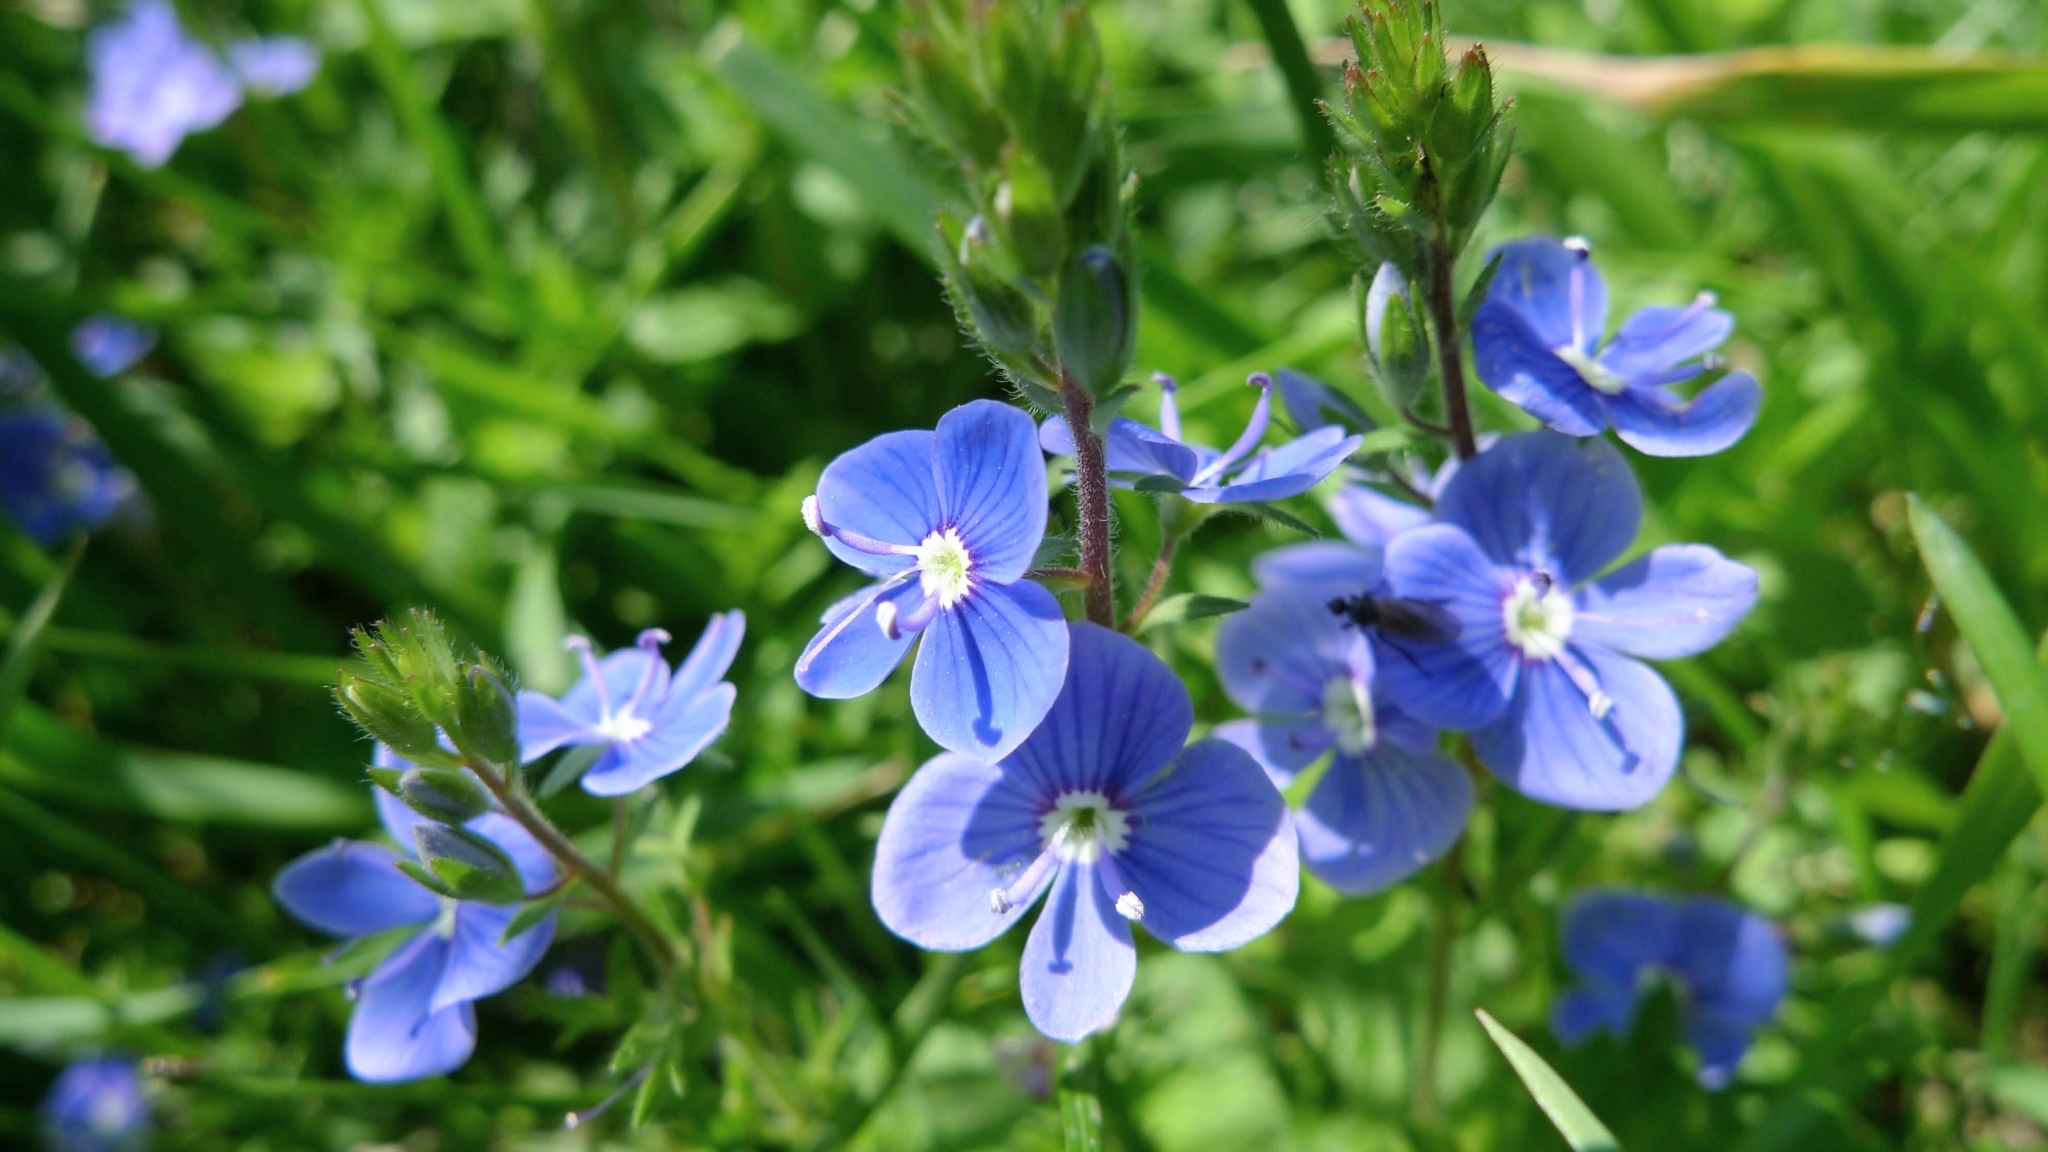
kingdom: Plantae
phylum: Tracheophyta
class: Magnoliopsida
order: Lamiales
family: Plantaginaceae
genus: Veronica
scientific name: Veronica chamaedrys
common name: Germander speedwell
